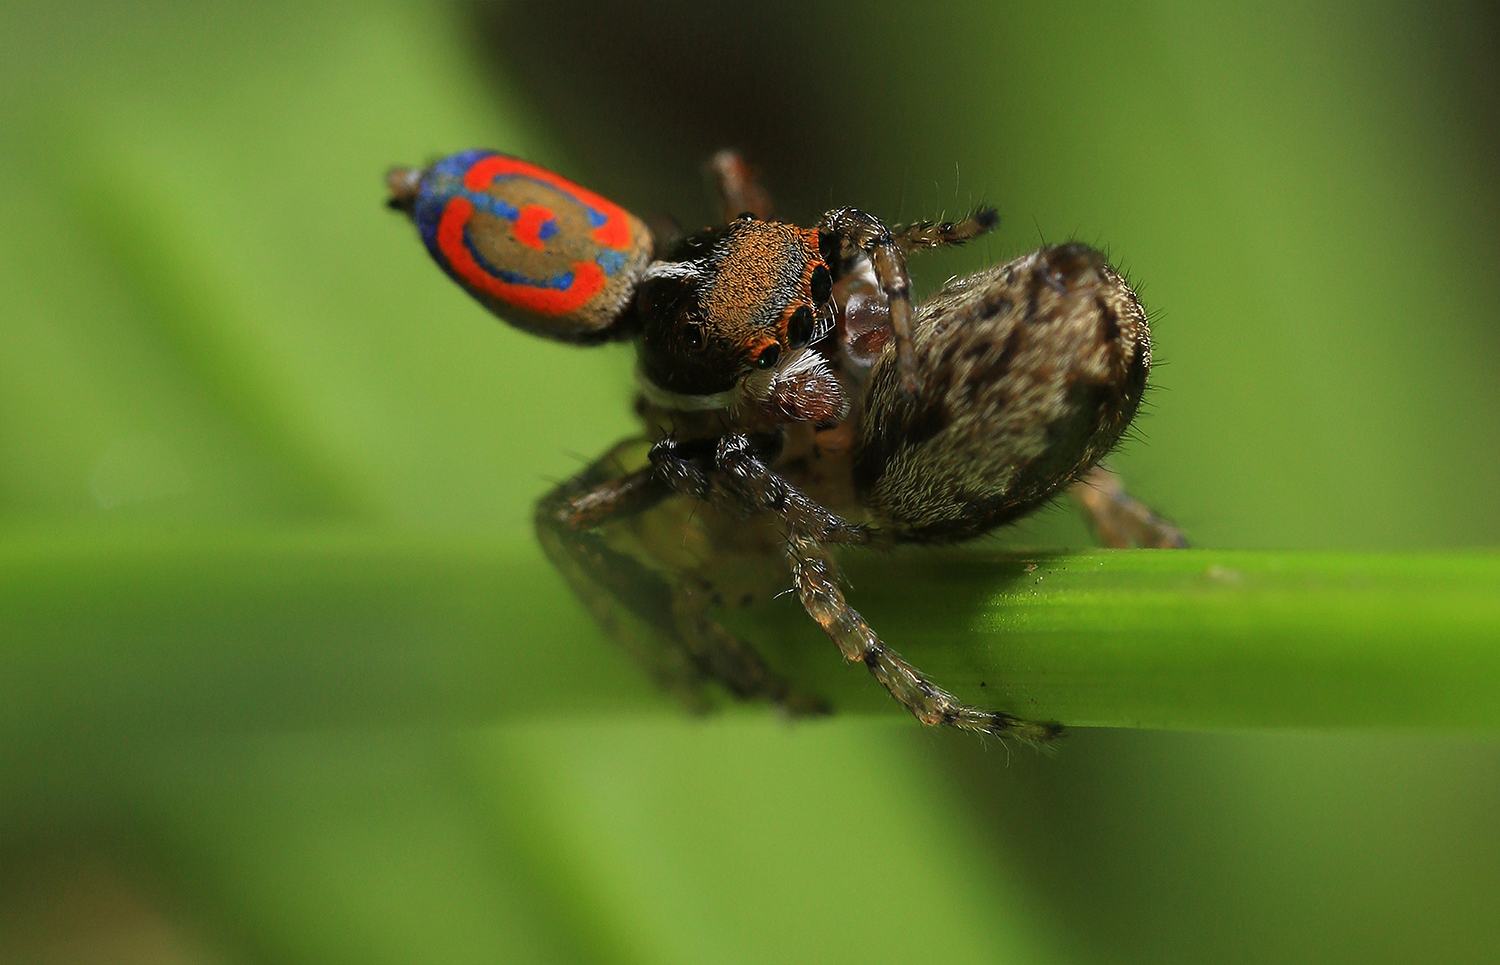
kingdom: Animalia
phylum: Arthropoda
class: Arachnida
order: Araneae
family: Salticidae
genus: Maratus
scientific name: Maratus pavonis
